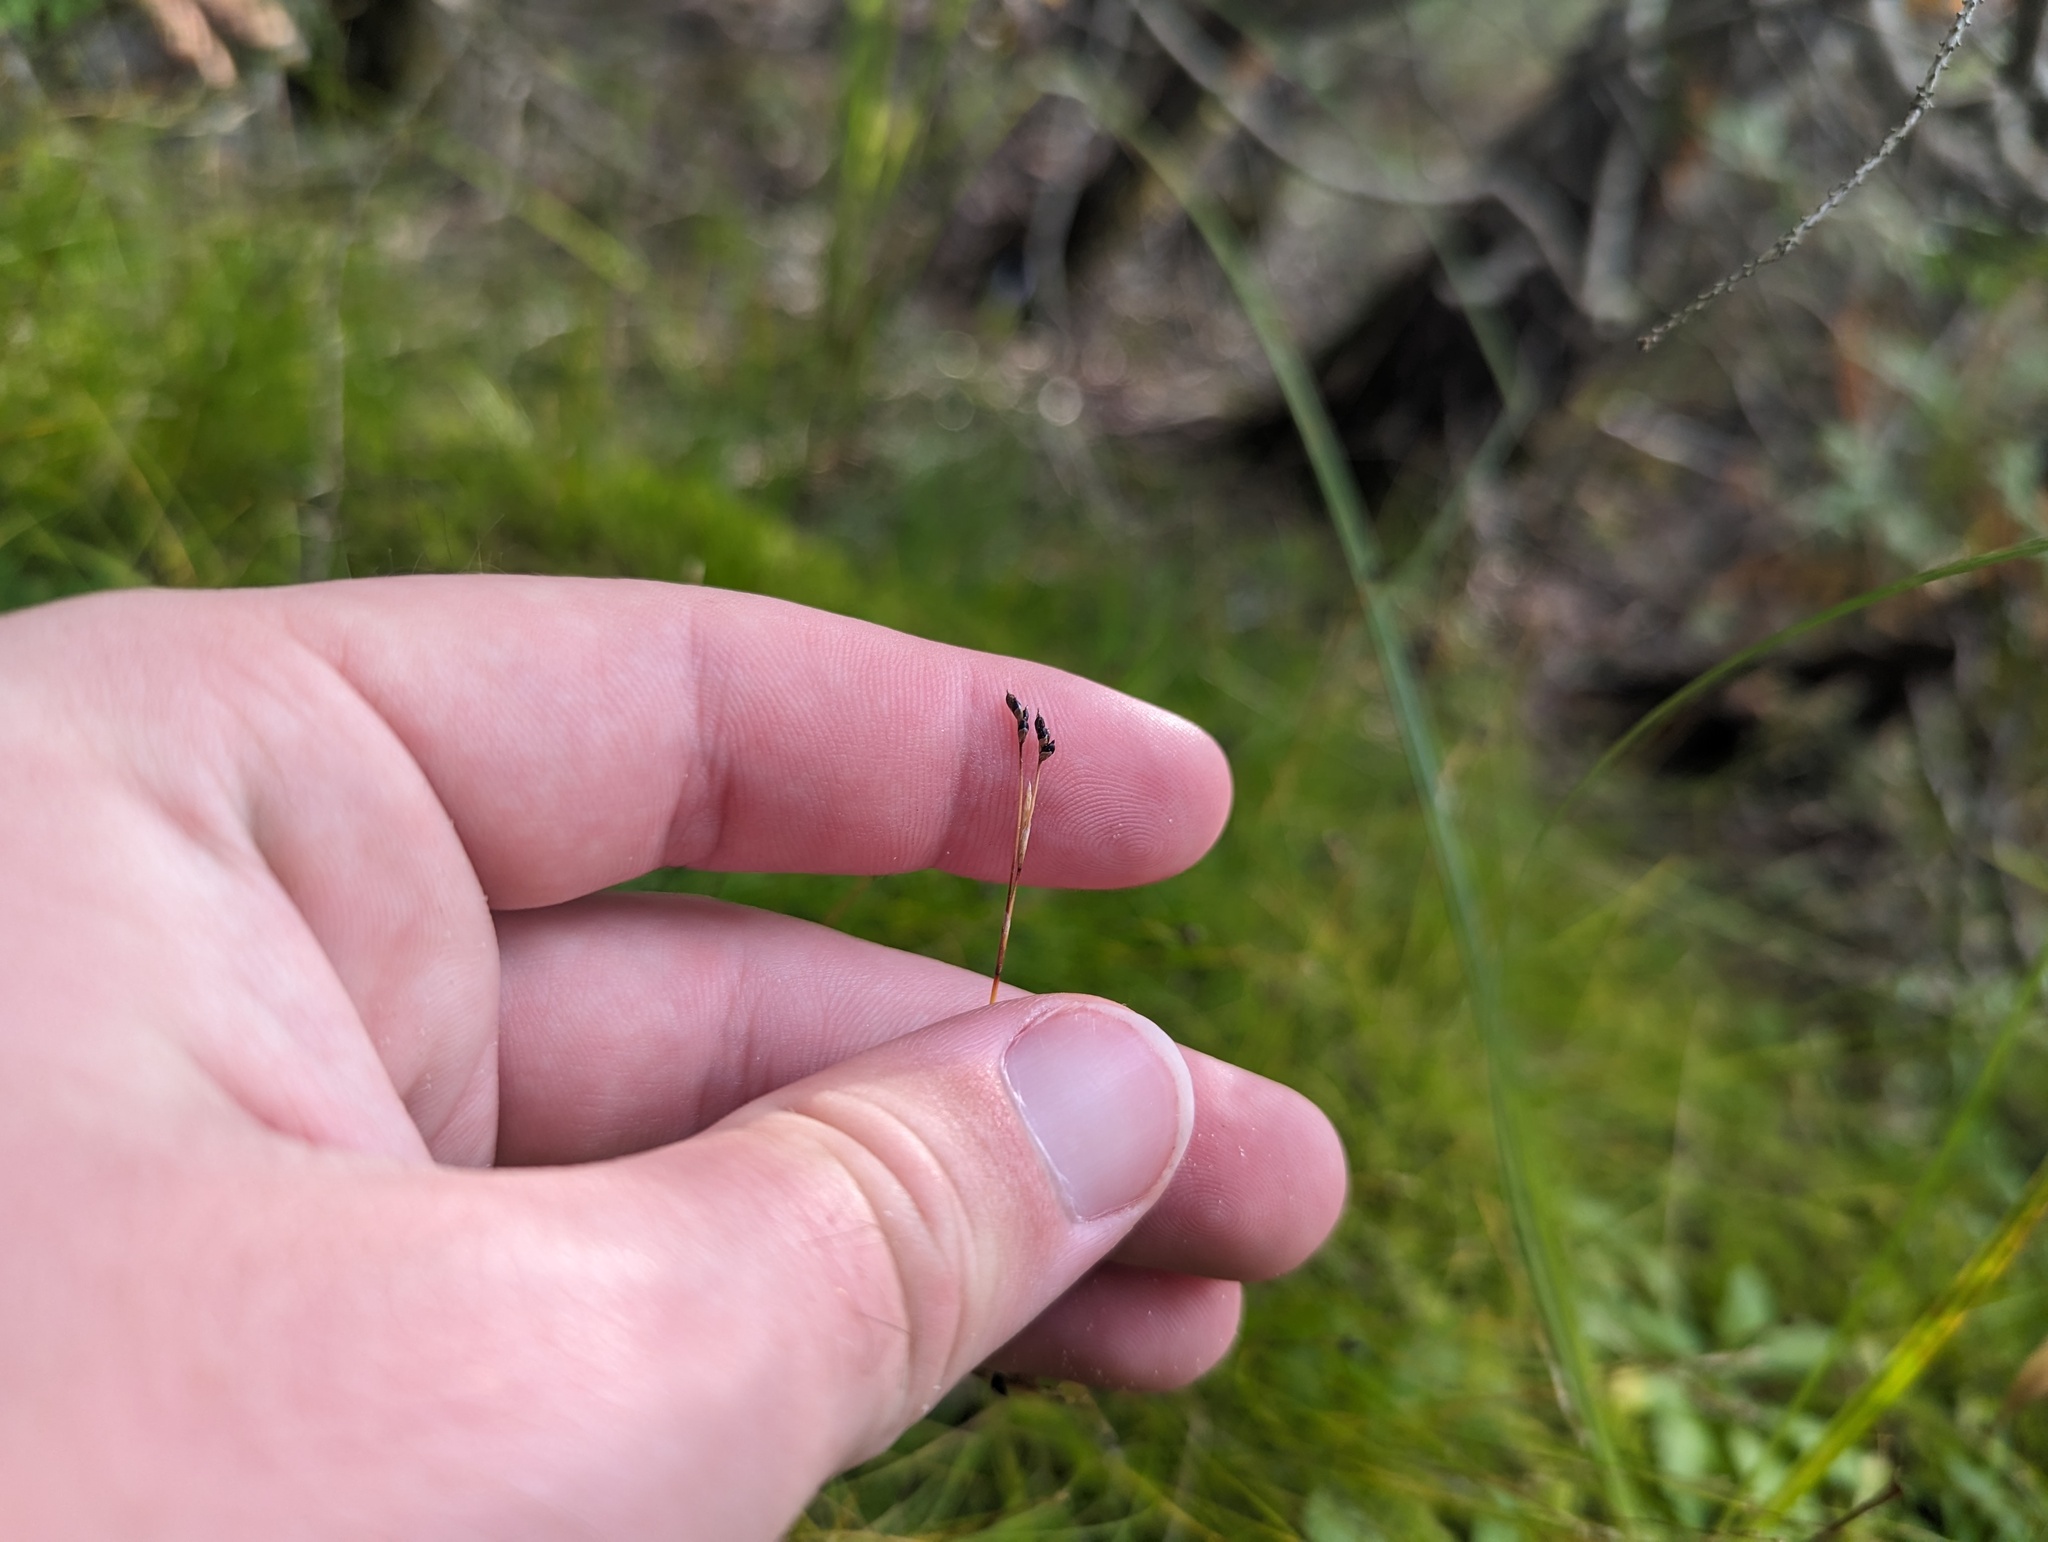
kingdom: Plantae
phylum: Tracheophyta
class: Liliopsida
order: Poales
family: Cyperaceae
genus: Carex
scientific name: Carex eburnea
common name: Bristle-leaved sedge
